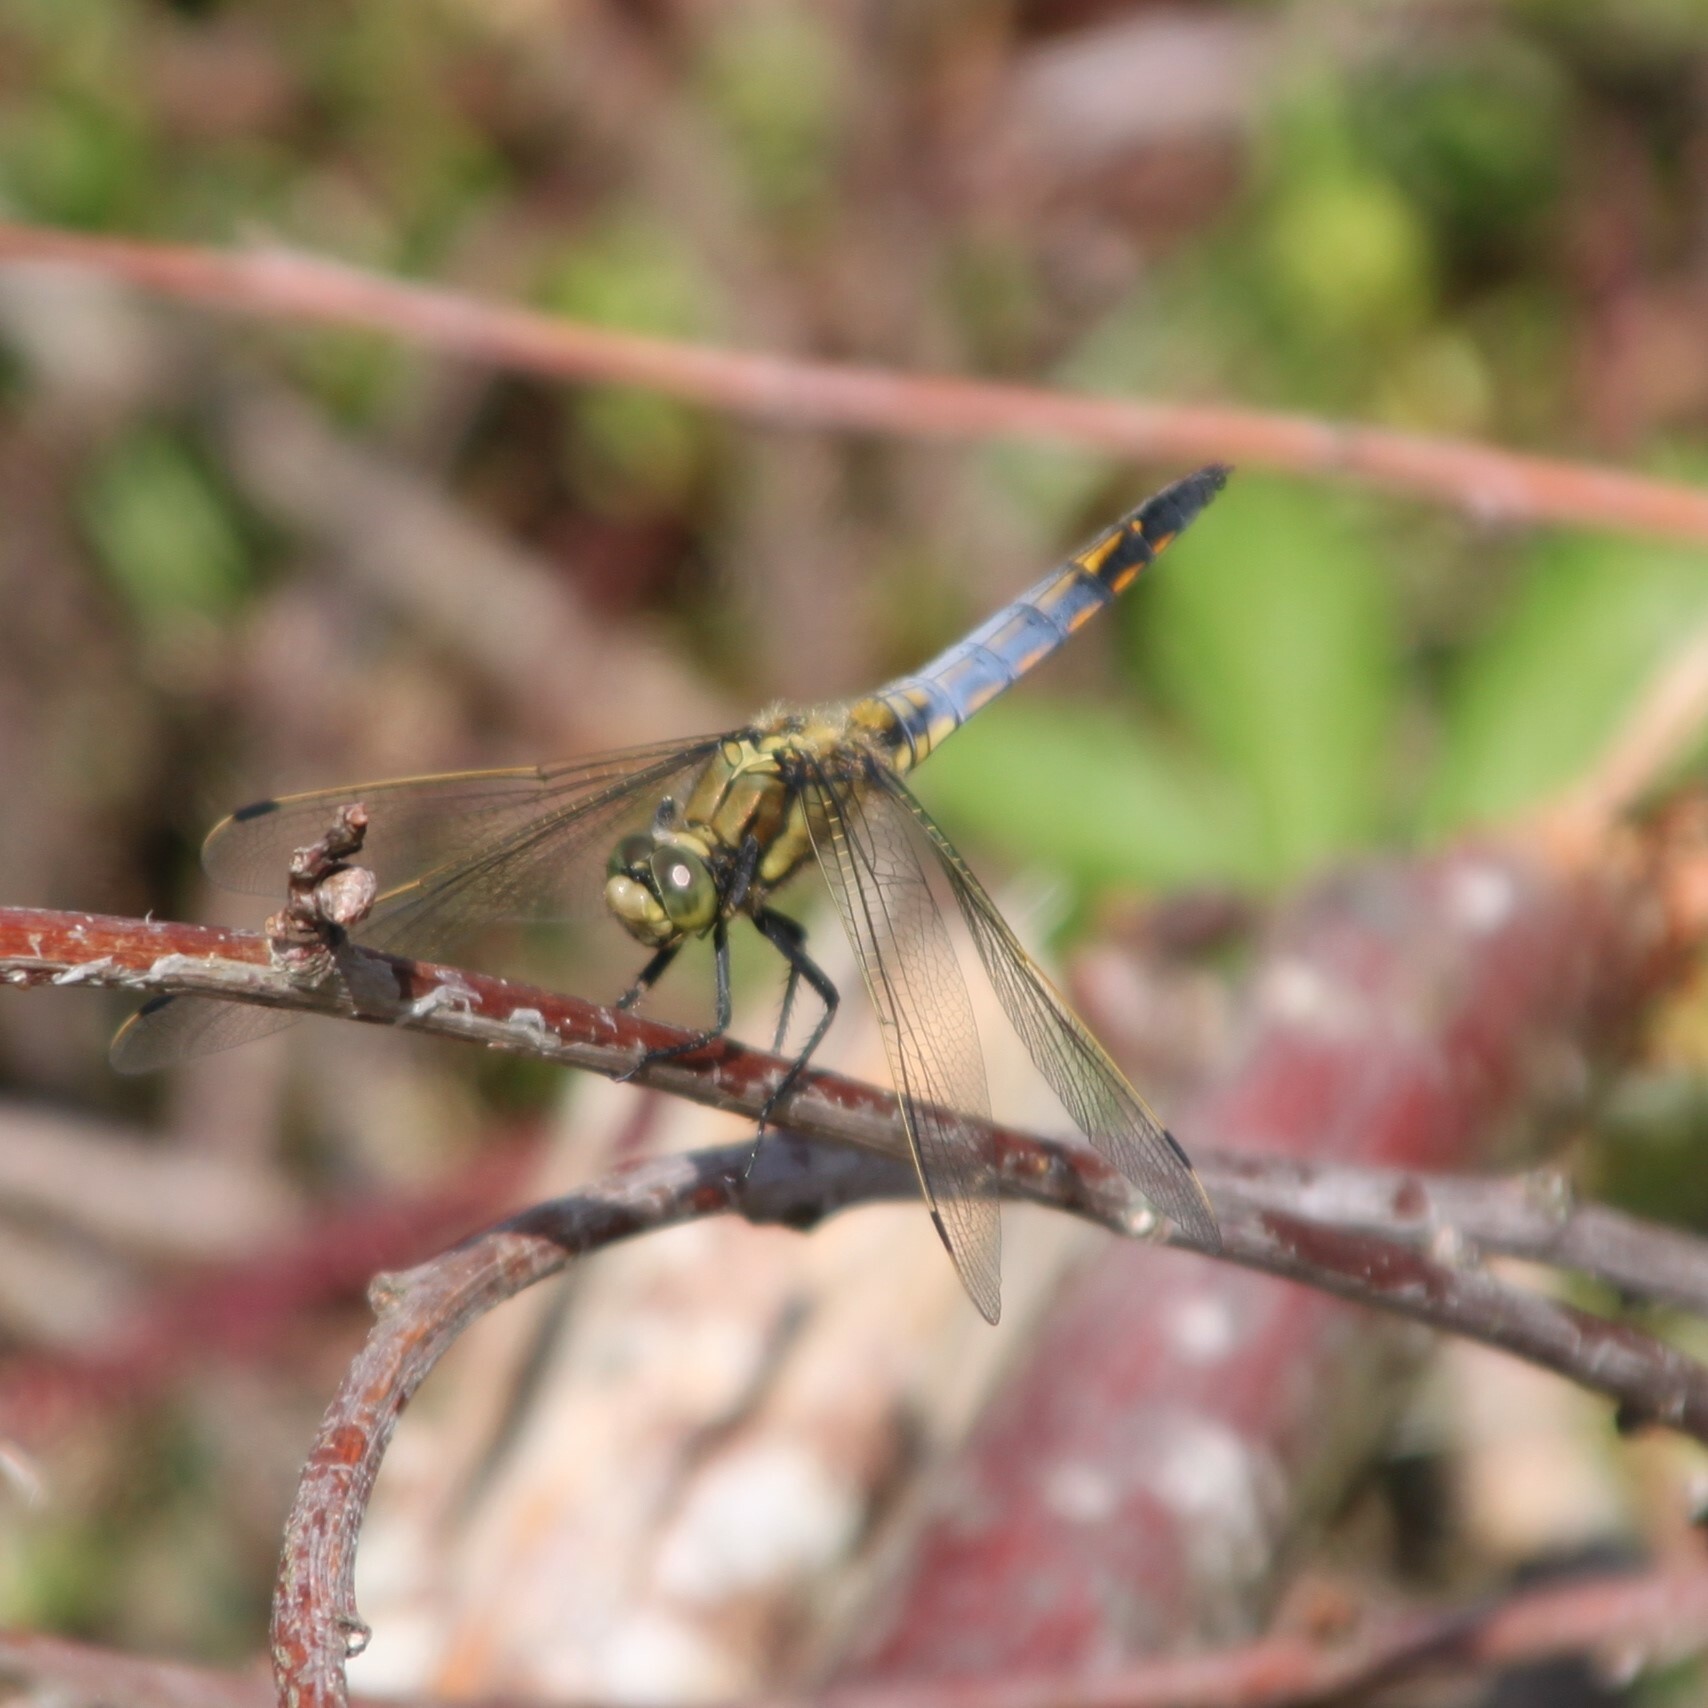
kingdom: Animalia
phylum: Arthropoda
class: Insecta
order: Odonata
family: Libellulidae
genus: Orthetrum
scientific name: Orthetrum cancellatum
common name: Black-tailed skimmer
